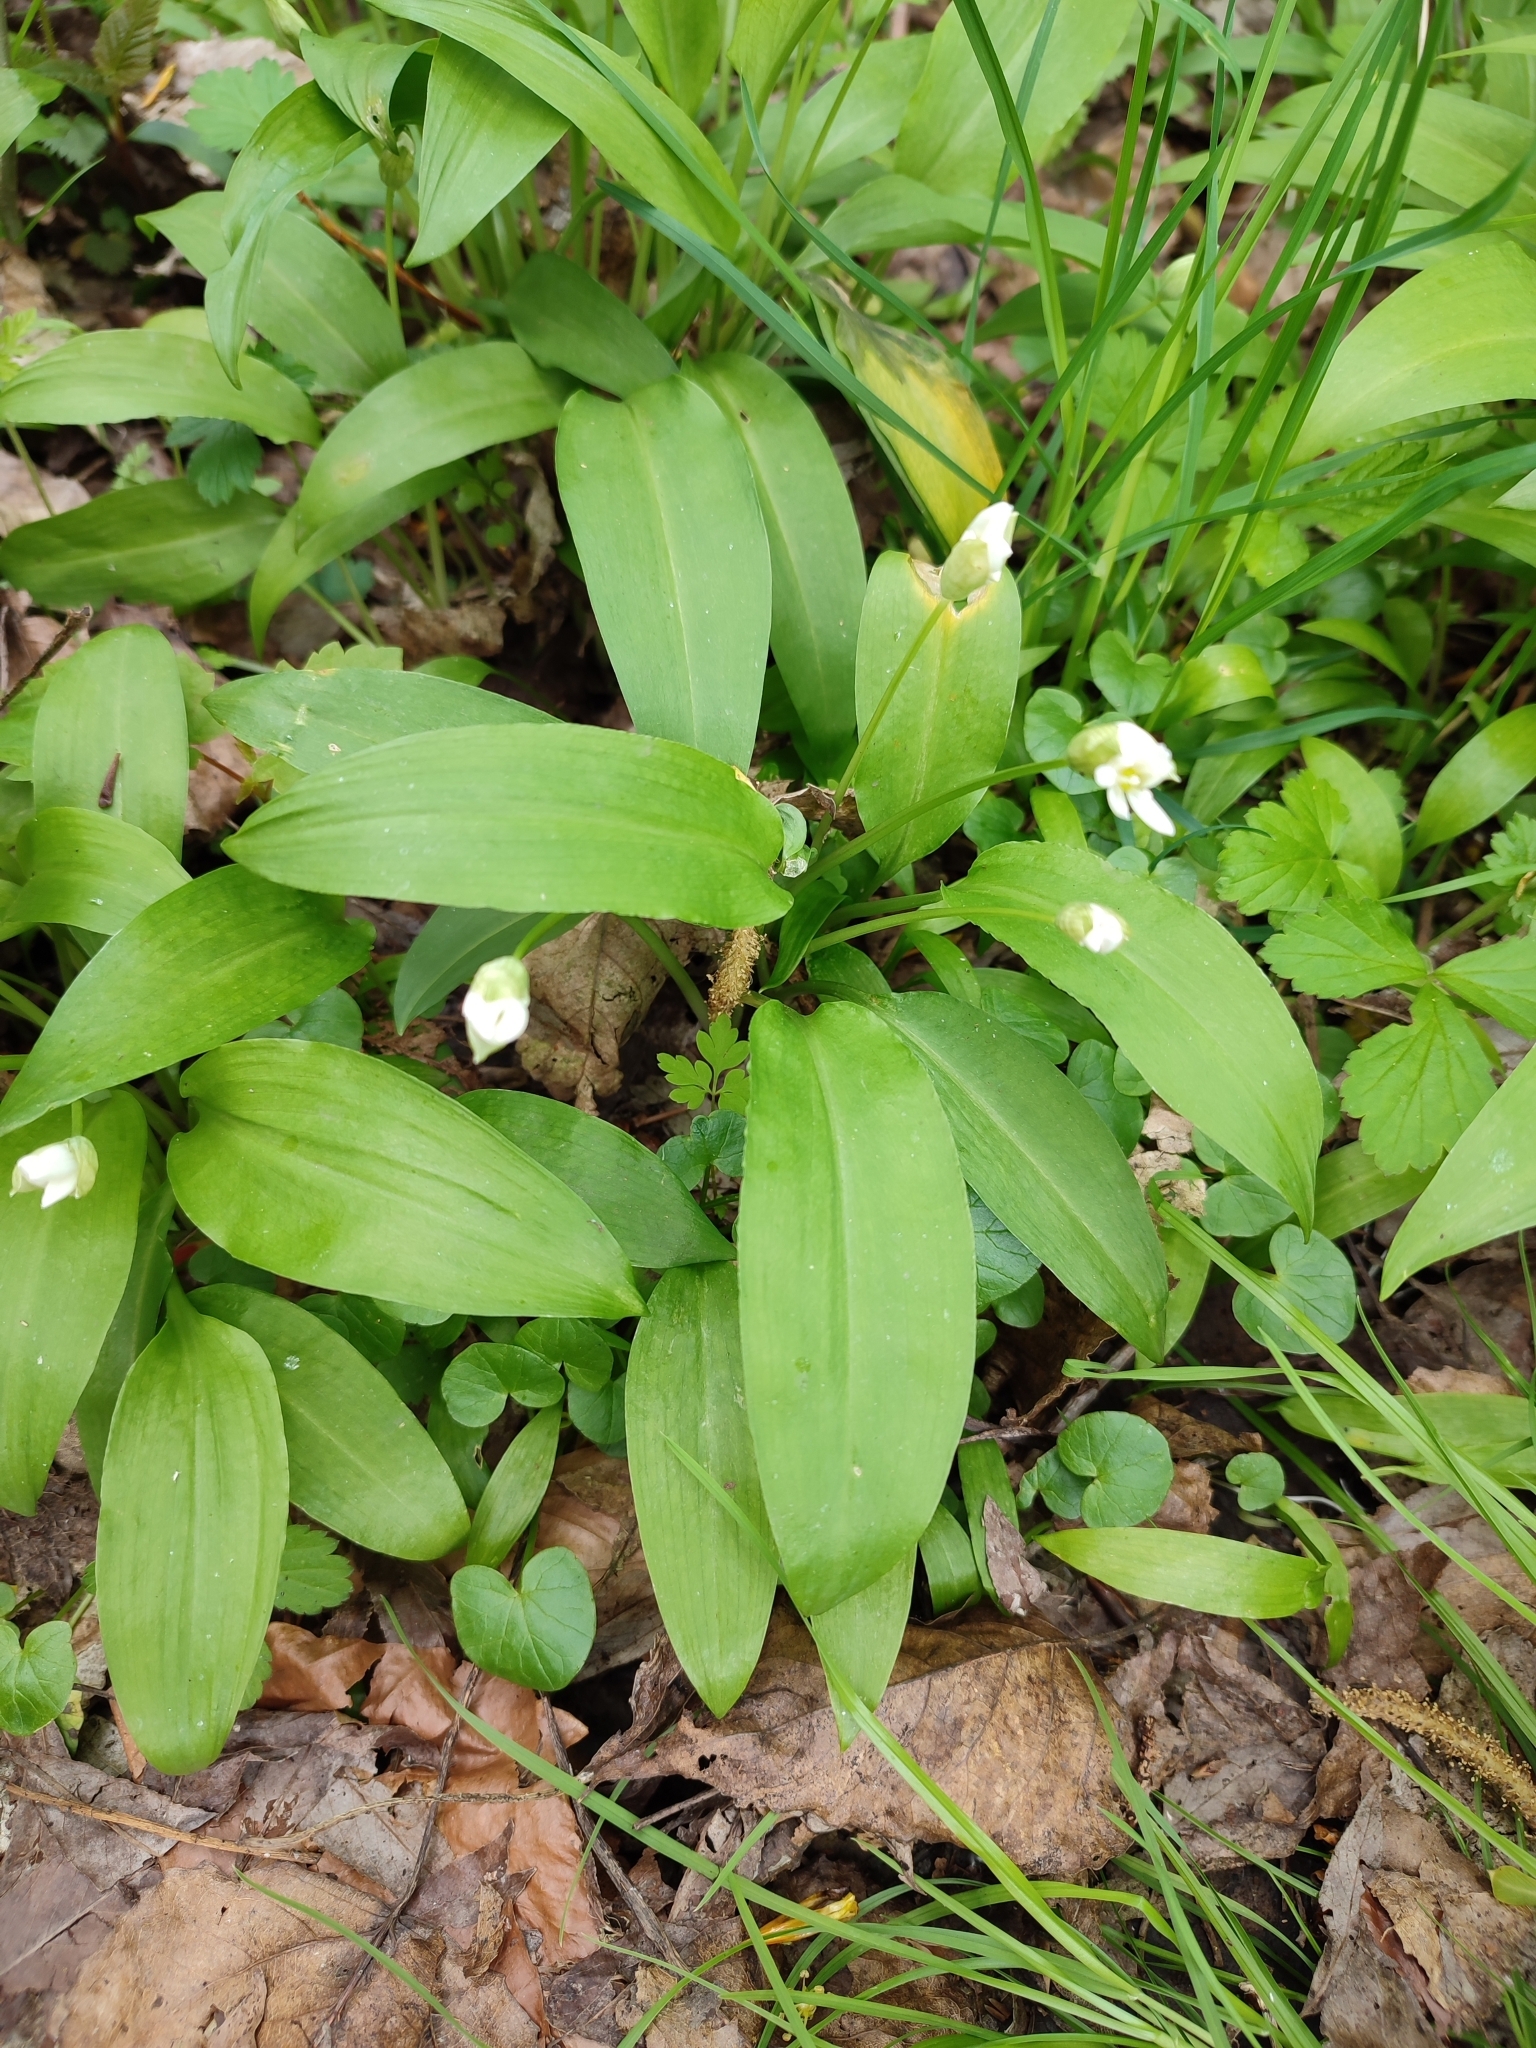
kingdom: Plantae
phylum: Tracheophyta
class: Liliopsida
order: Asparagales
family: Amaryllidaceae
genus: Allium
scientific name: Allium ursinum
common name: Ramsons
